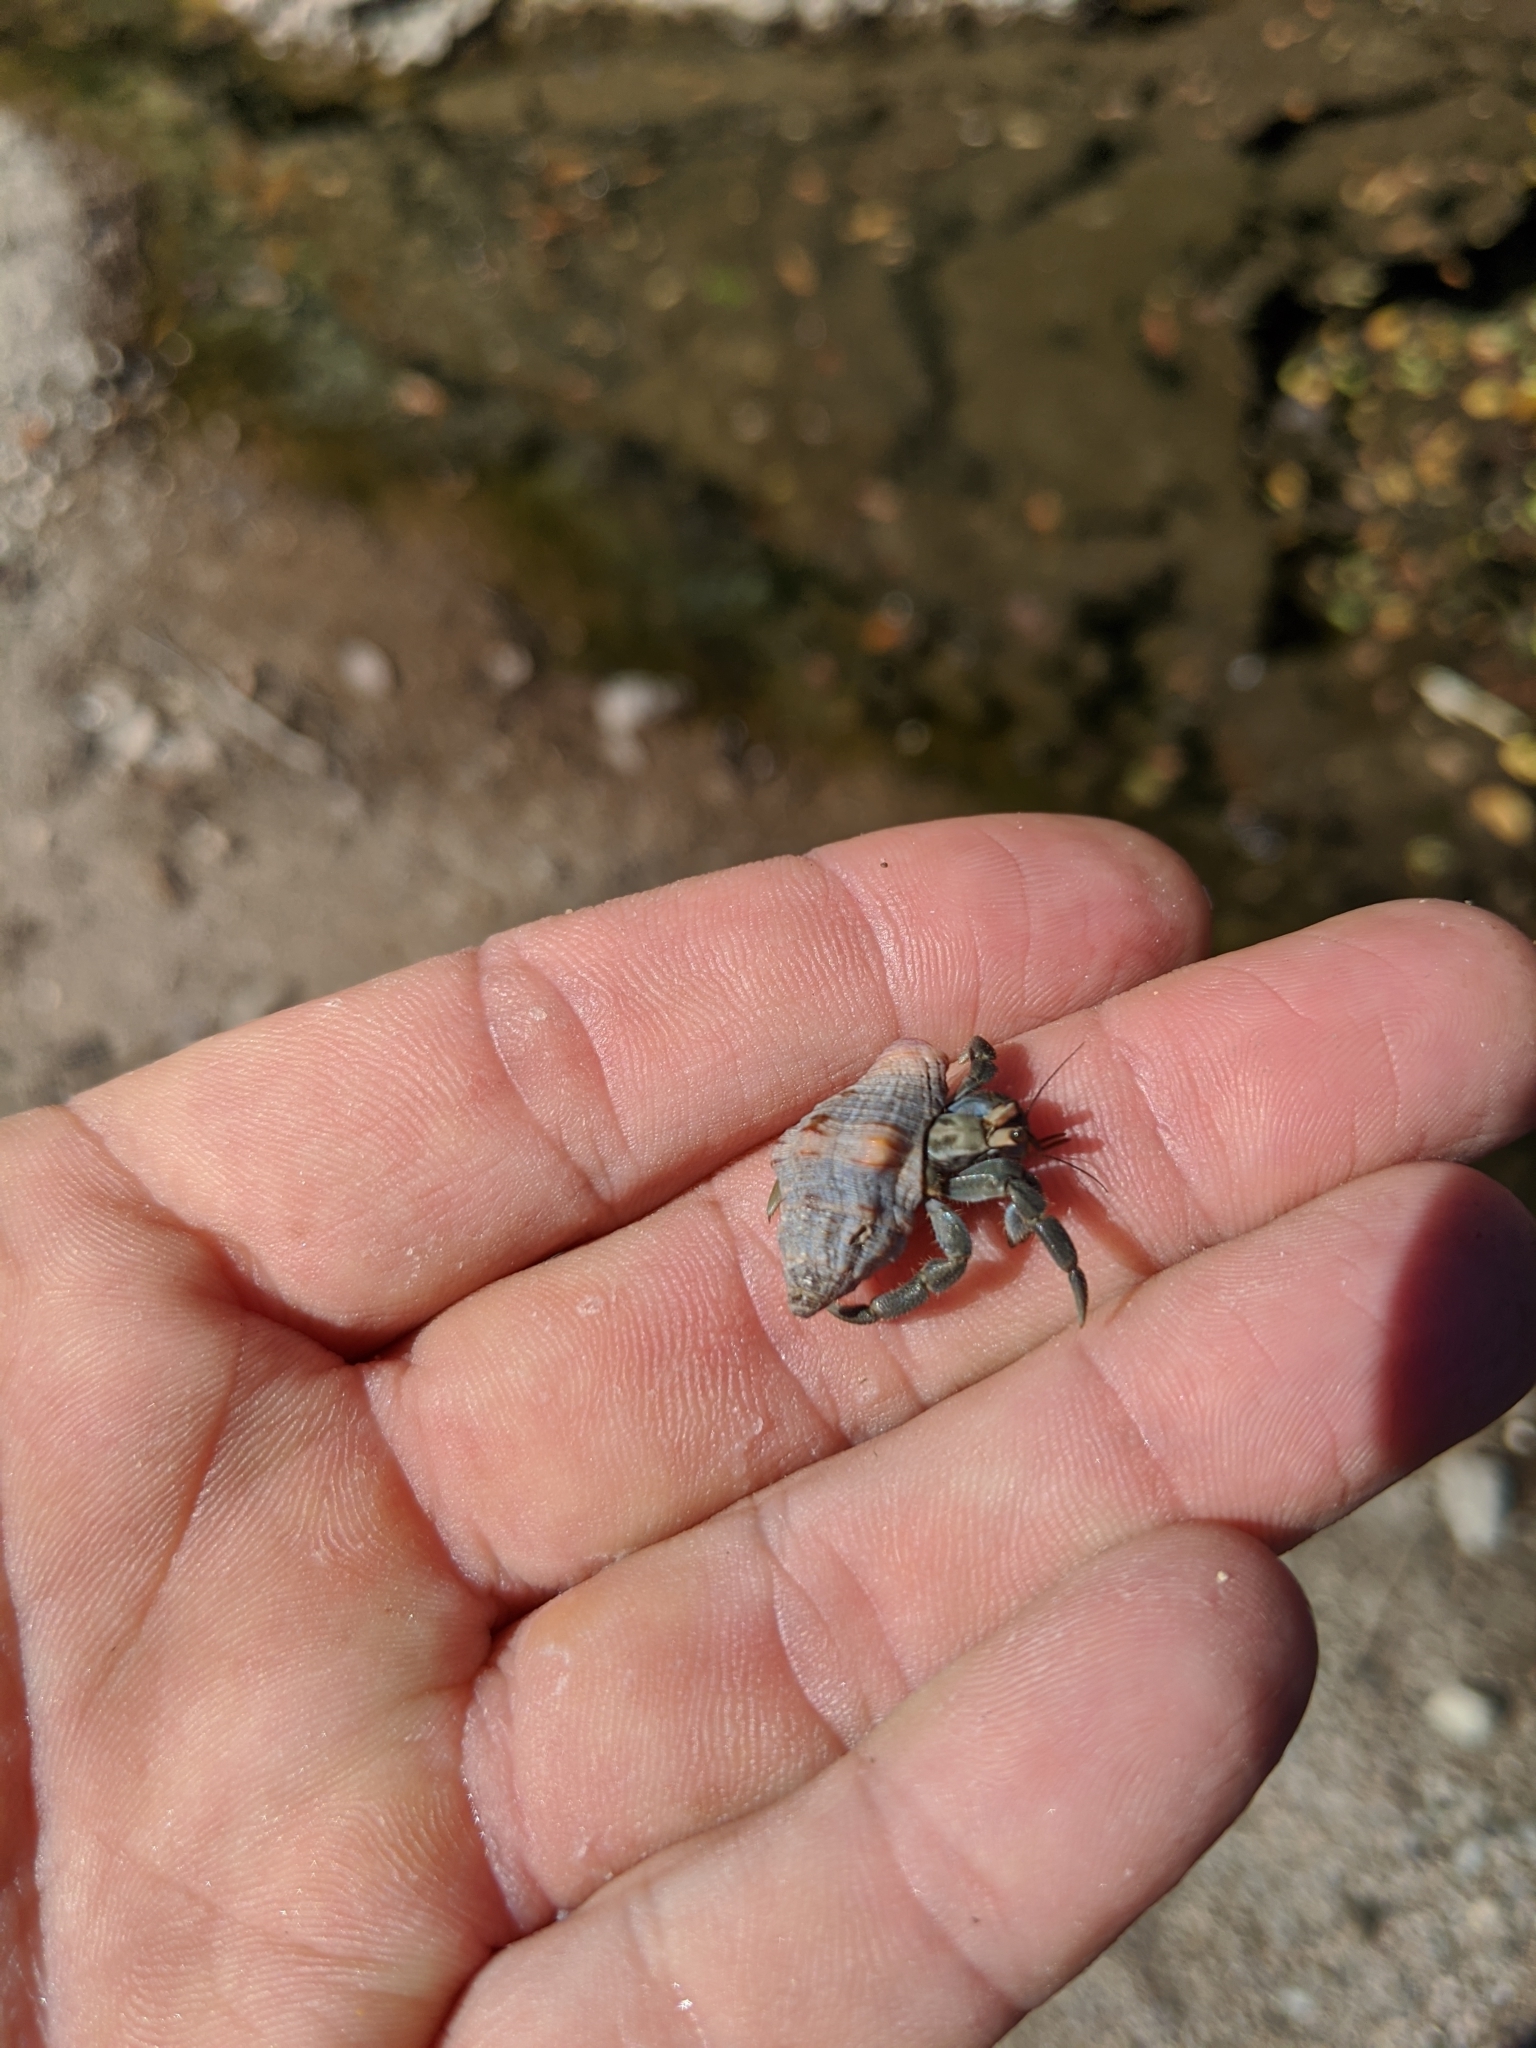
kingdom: Animalia
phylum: Arthropoda
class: Malacostraca
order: Decapoda
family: Coenobitidae
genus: Coenobita
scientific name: Coenobita compressus
